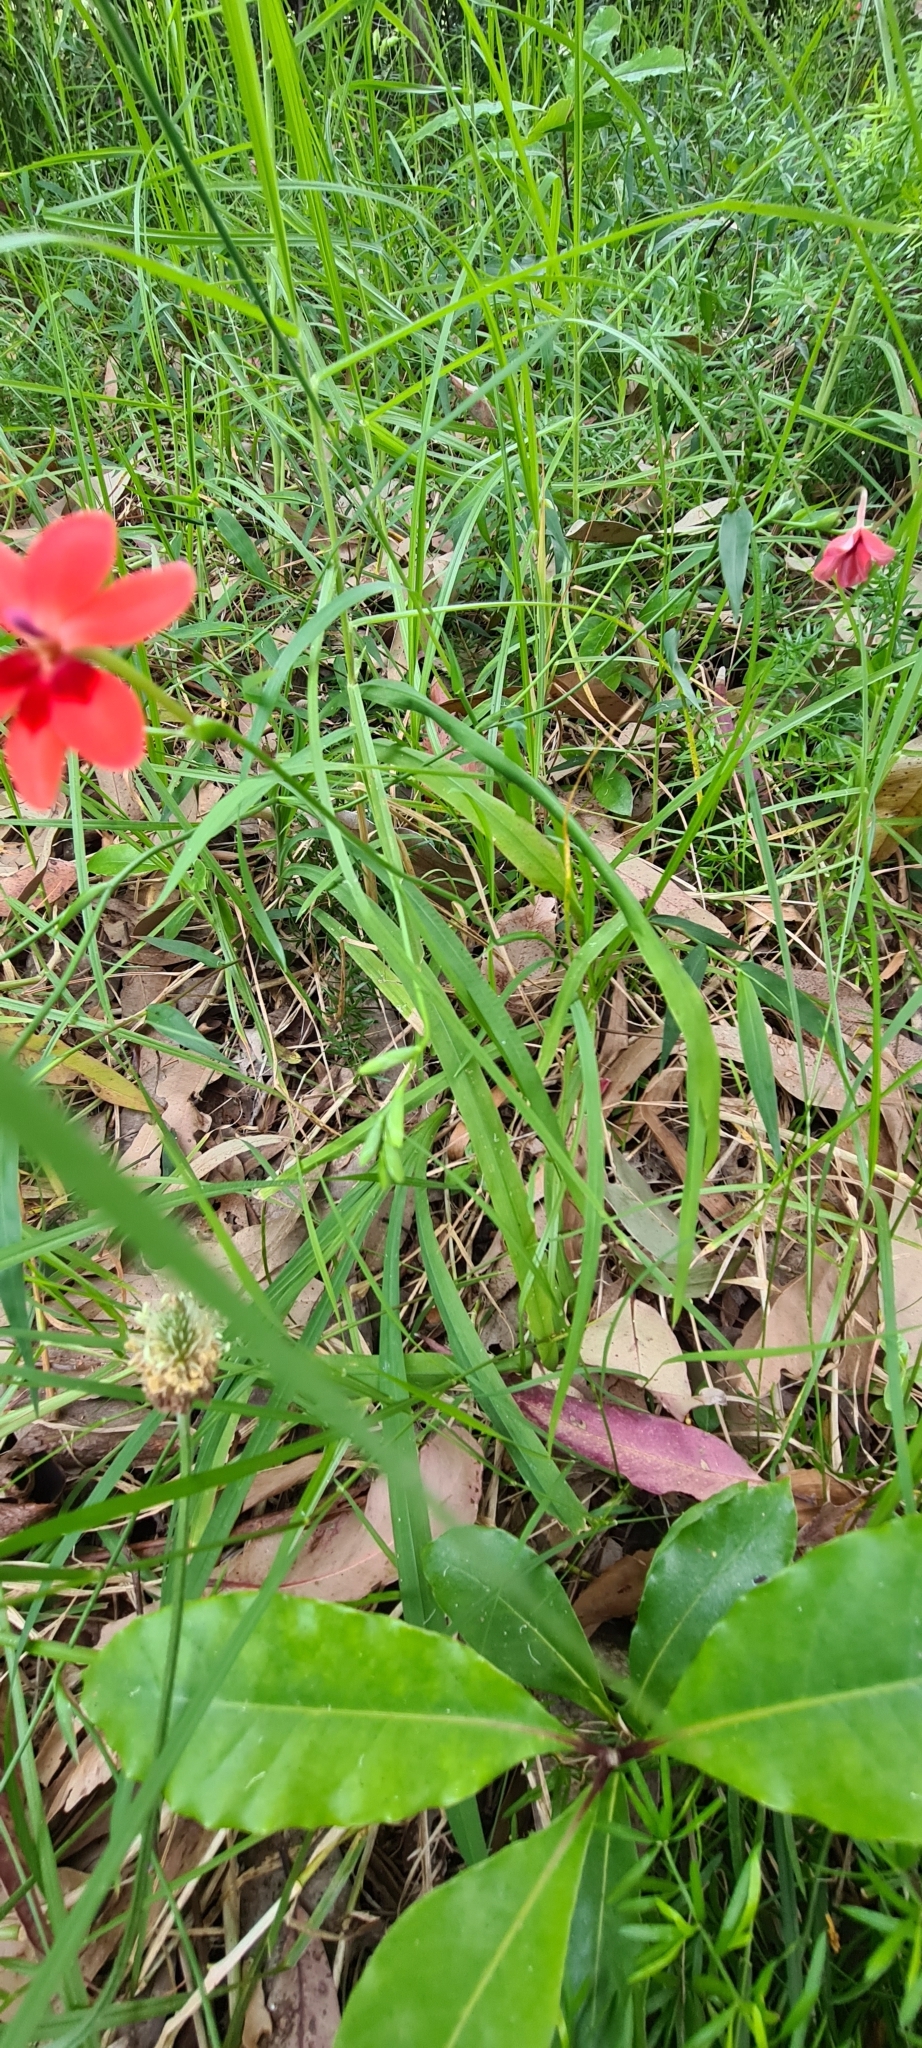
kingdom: Plantae
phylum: Tracheophyta
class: Liliopsida
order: Asparagales
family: Iridaceae
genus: Freesia
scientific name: Freesia laxa
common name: False freesia
